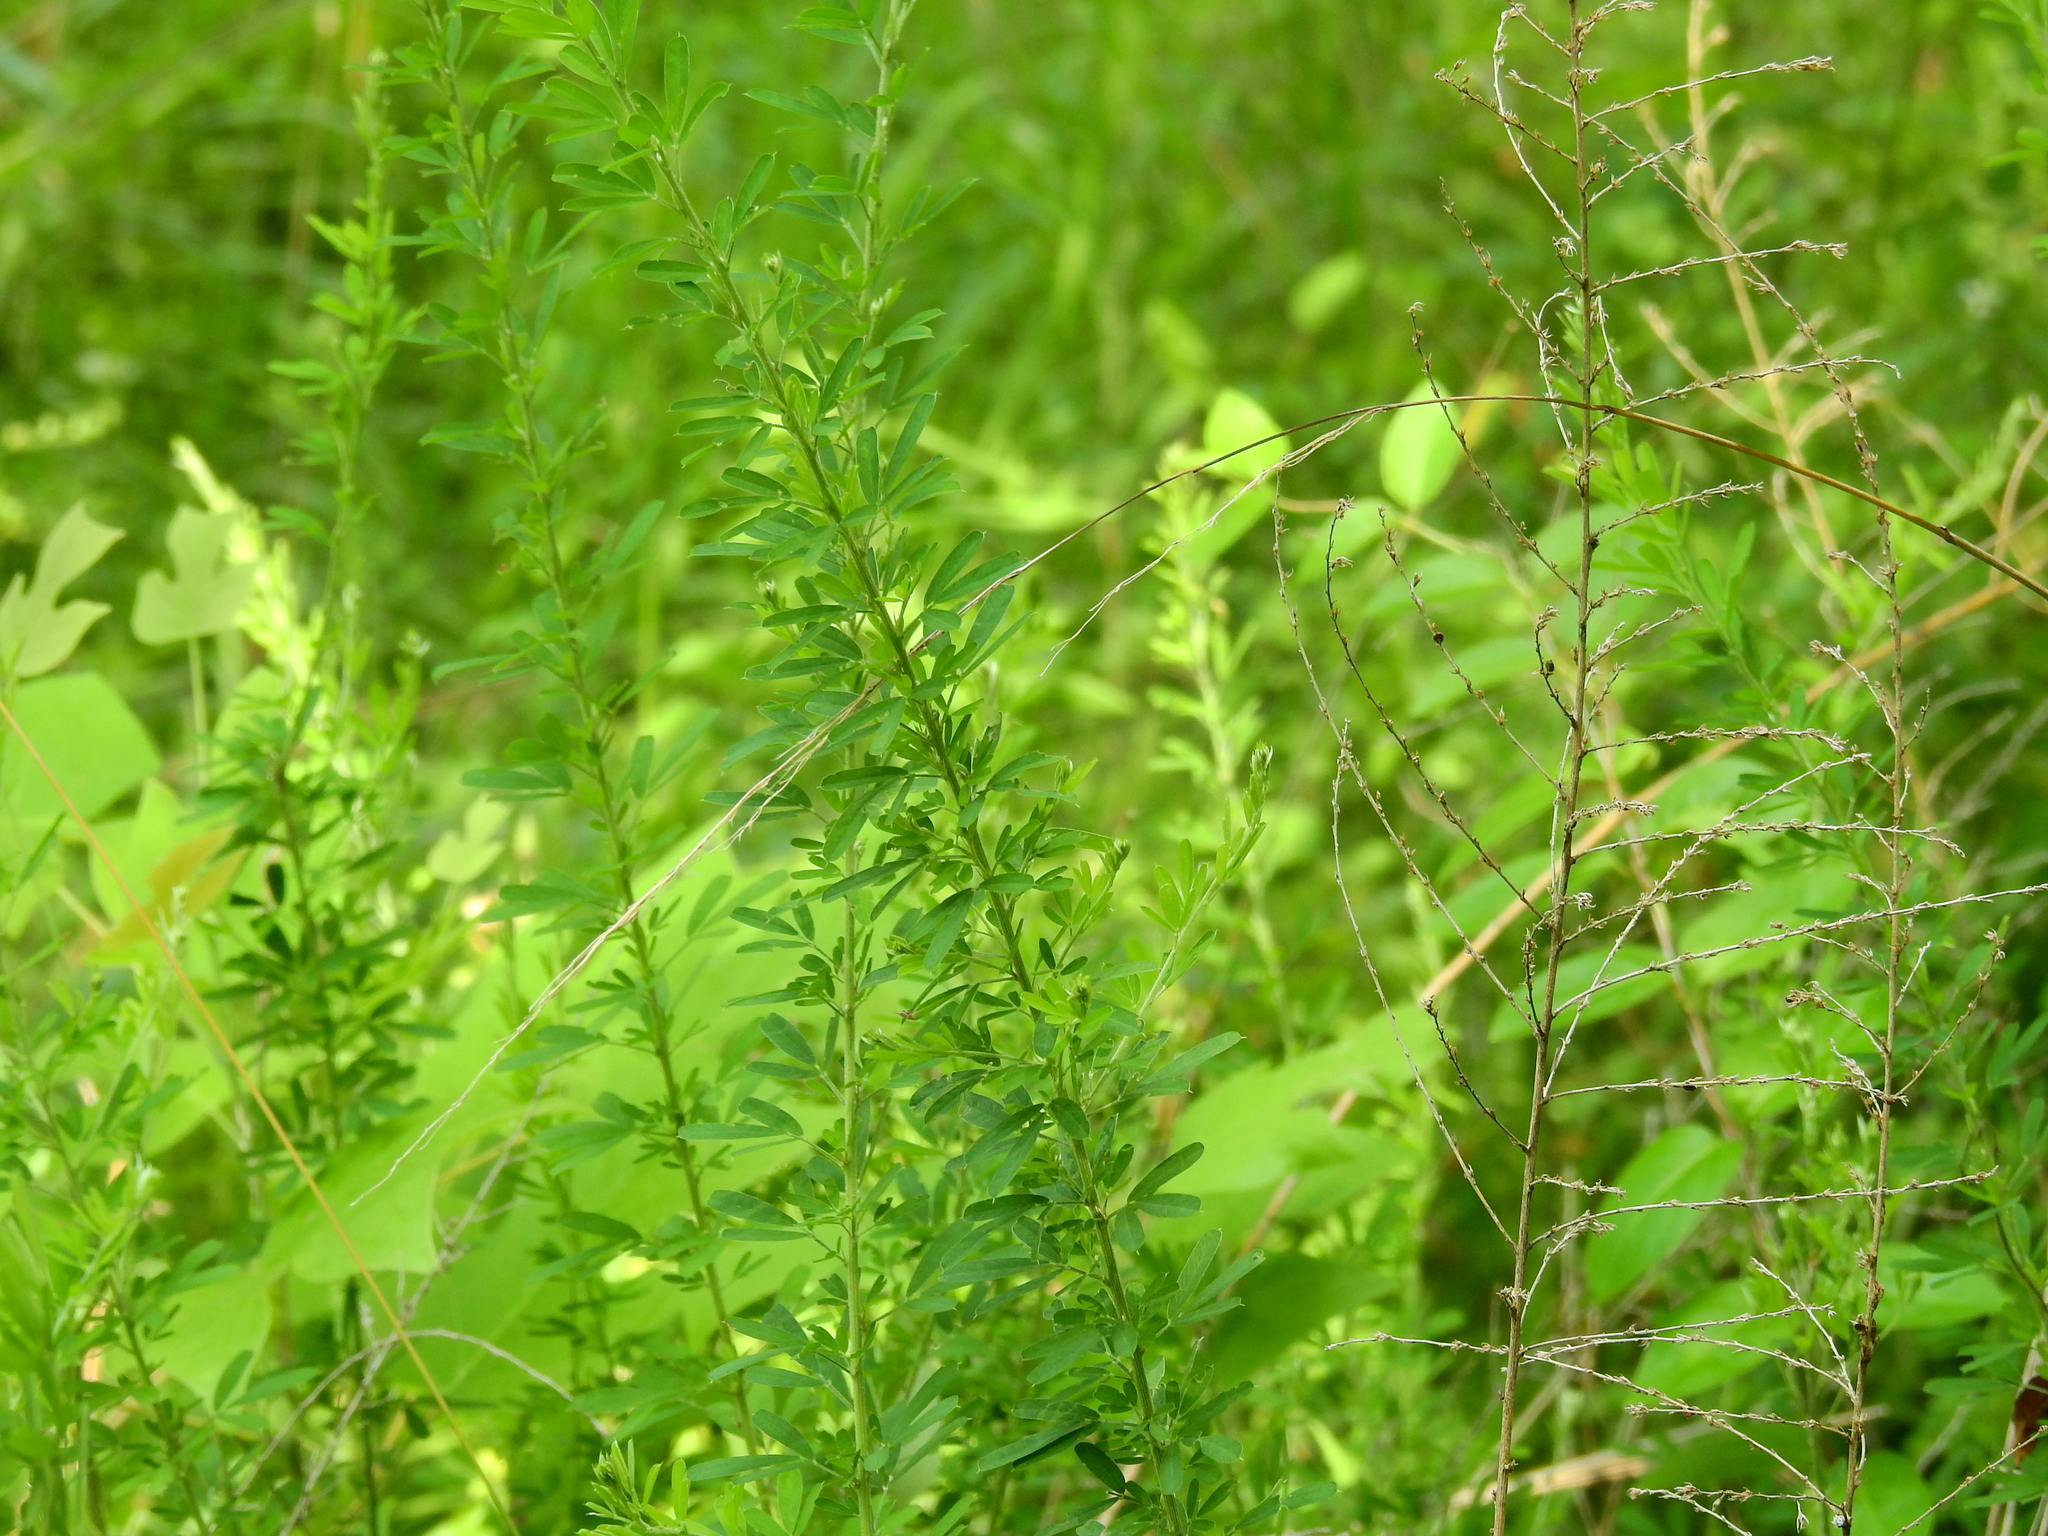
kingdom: Plantae
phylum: Tracheophyta
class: Magnoliopsida
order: Fabales
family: Fabaceae
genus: Lespedeza
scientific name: Lespedeza cuneata
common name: Chinese bush-clover
